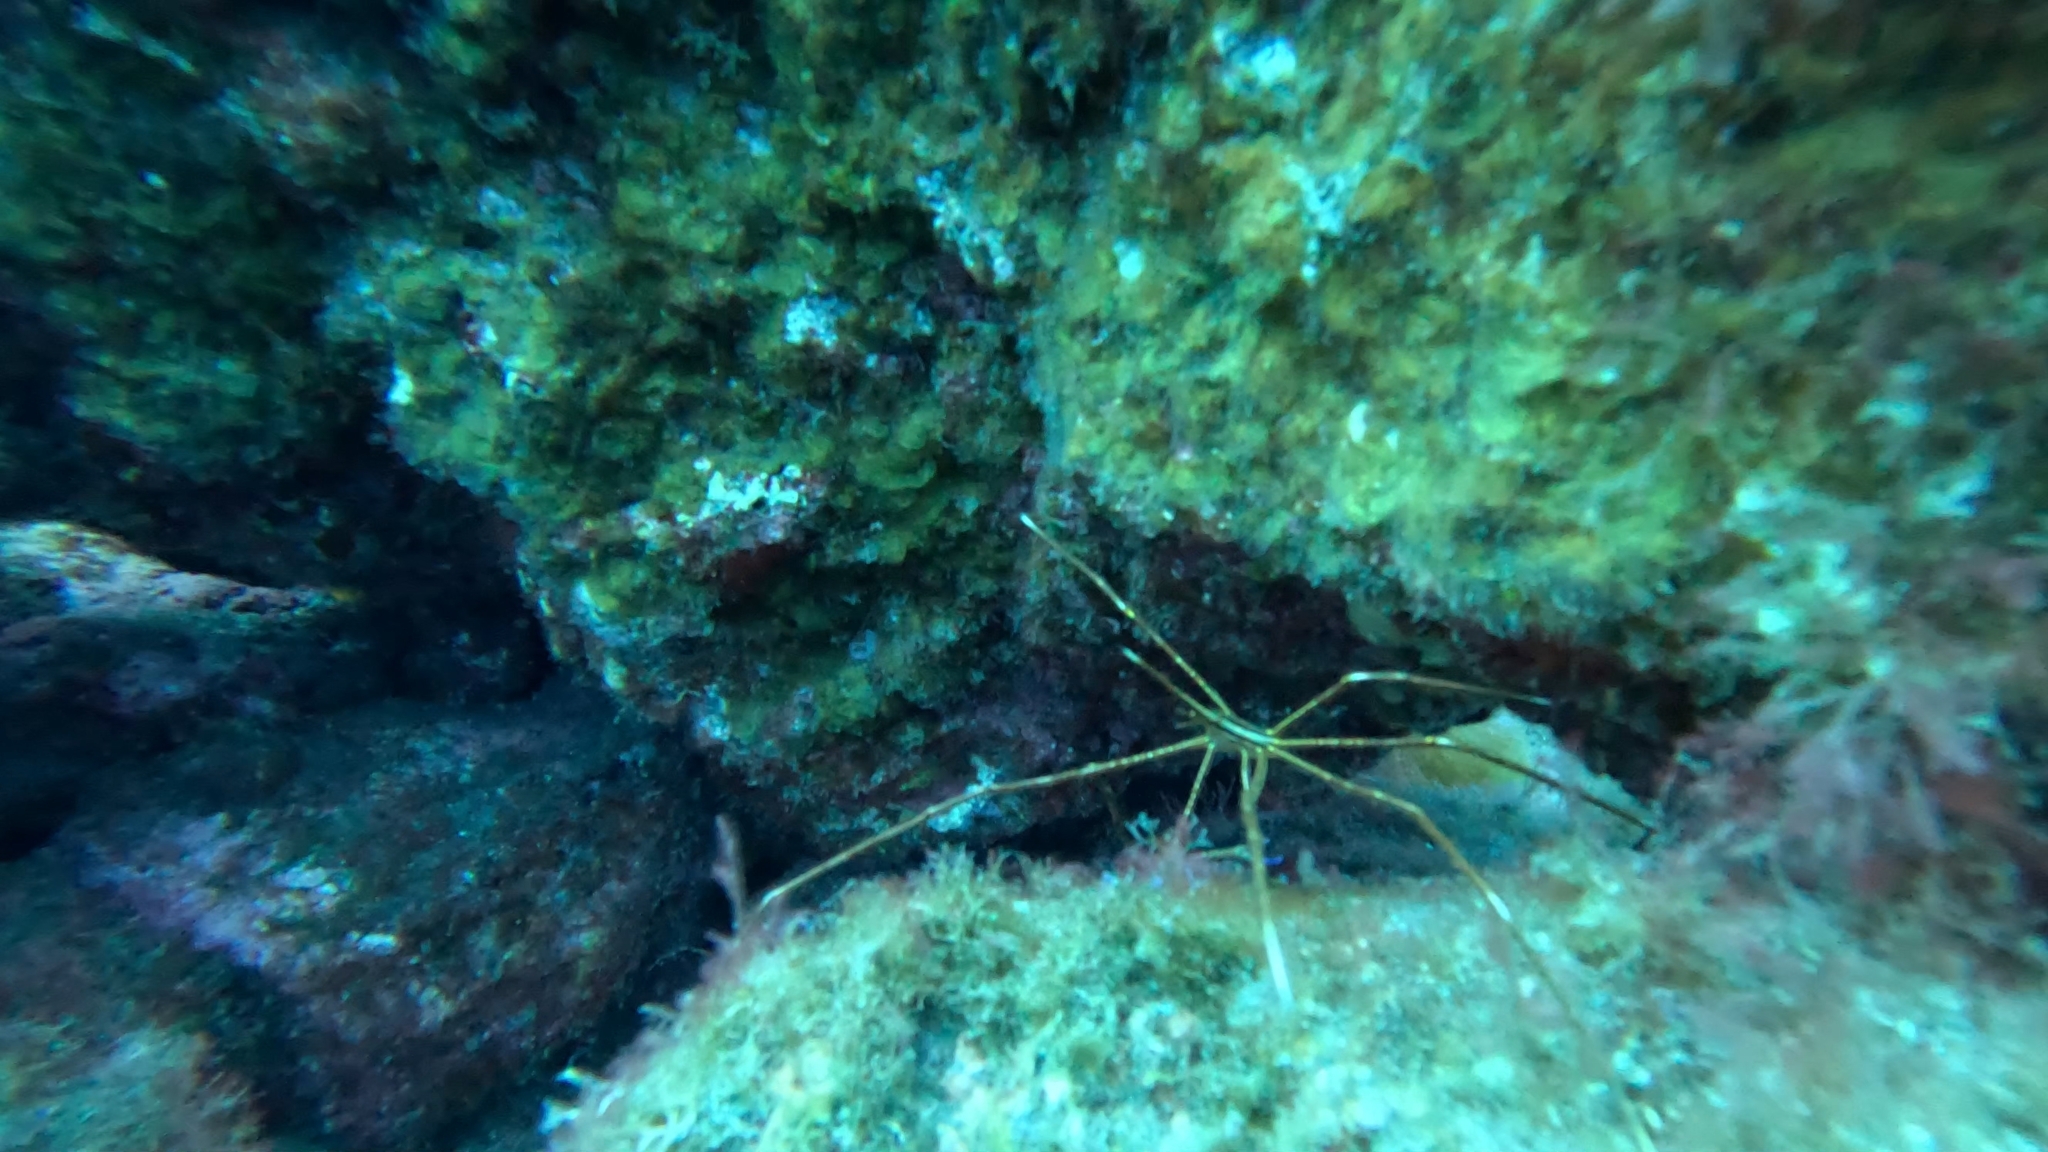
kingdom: Animalia
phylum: Arthropoda
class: Malacostraca
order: Decapoda
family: Inachoididae
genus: Stenorhynchus
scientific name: Stenorhynchus lanceolatus
